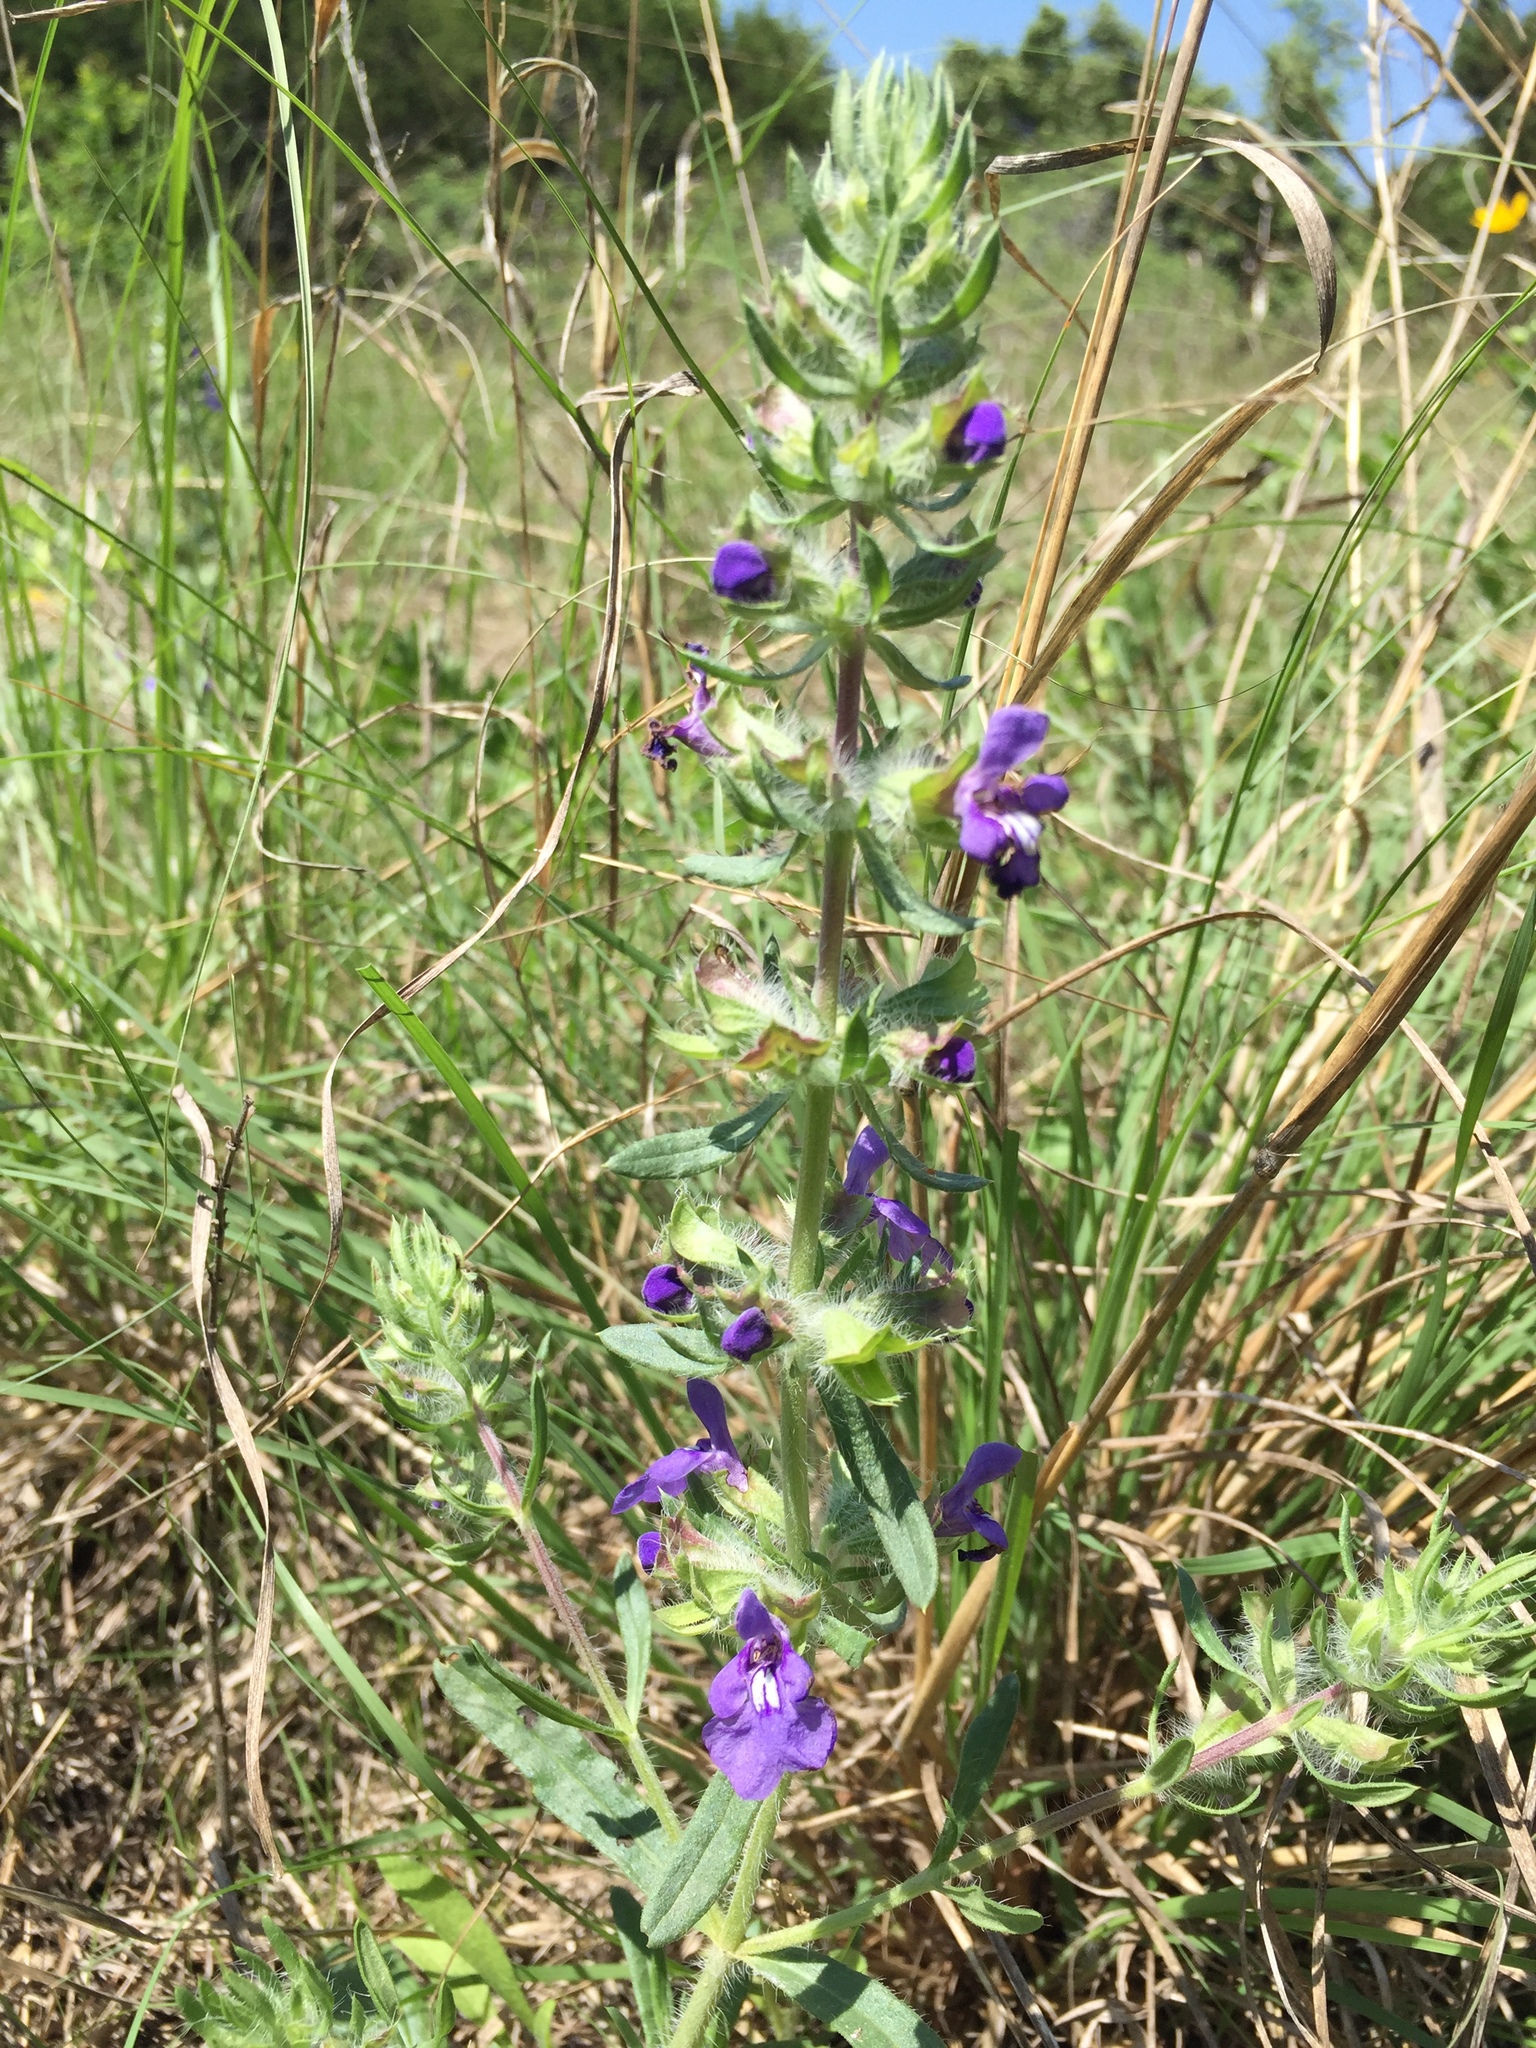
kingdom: Plantae
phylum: Tracheophyta
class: Magnoliopsida
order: Lamiales
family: Lamiaceae
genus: Salvia
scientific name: Salvia texana
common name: Texas sage
